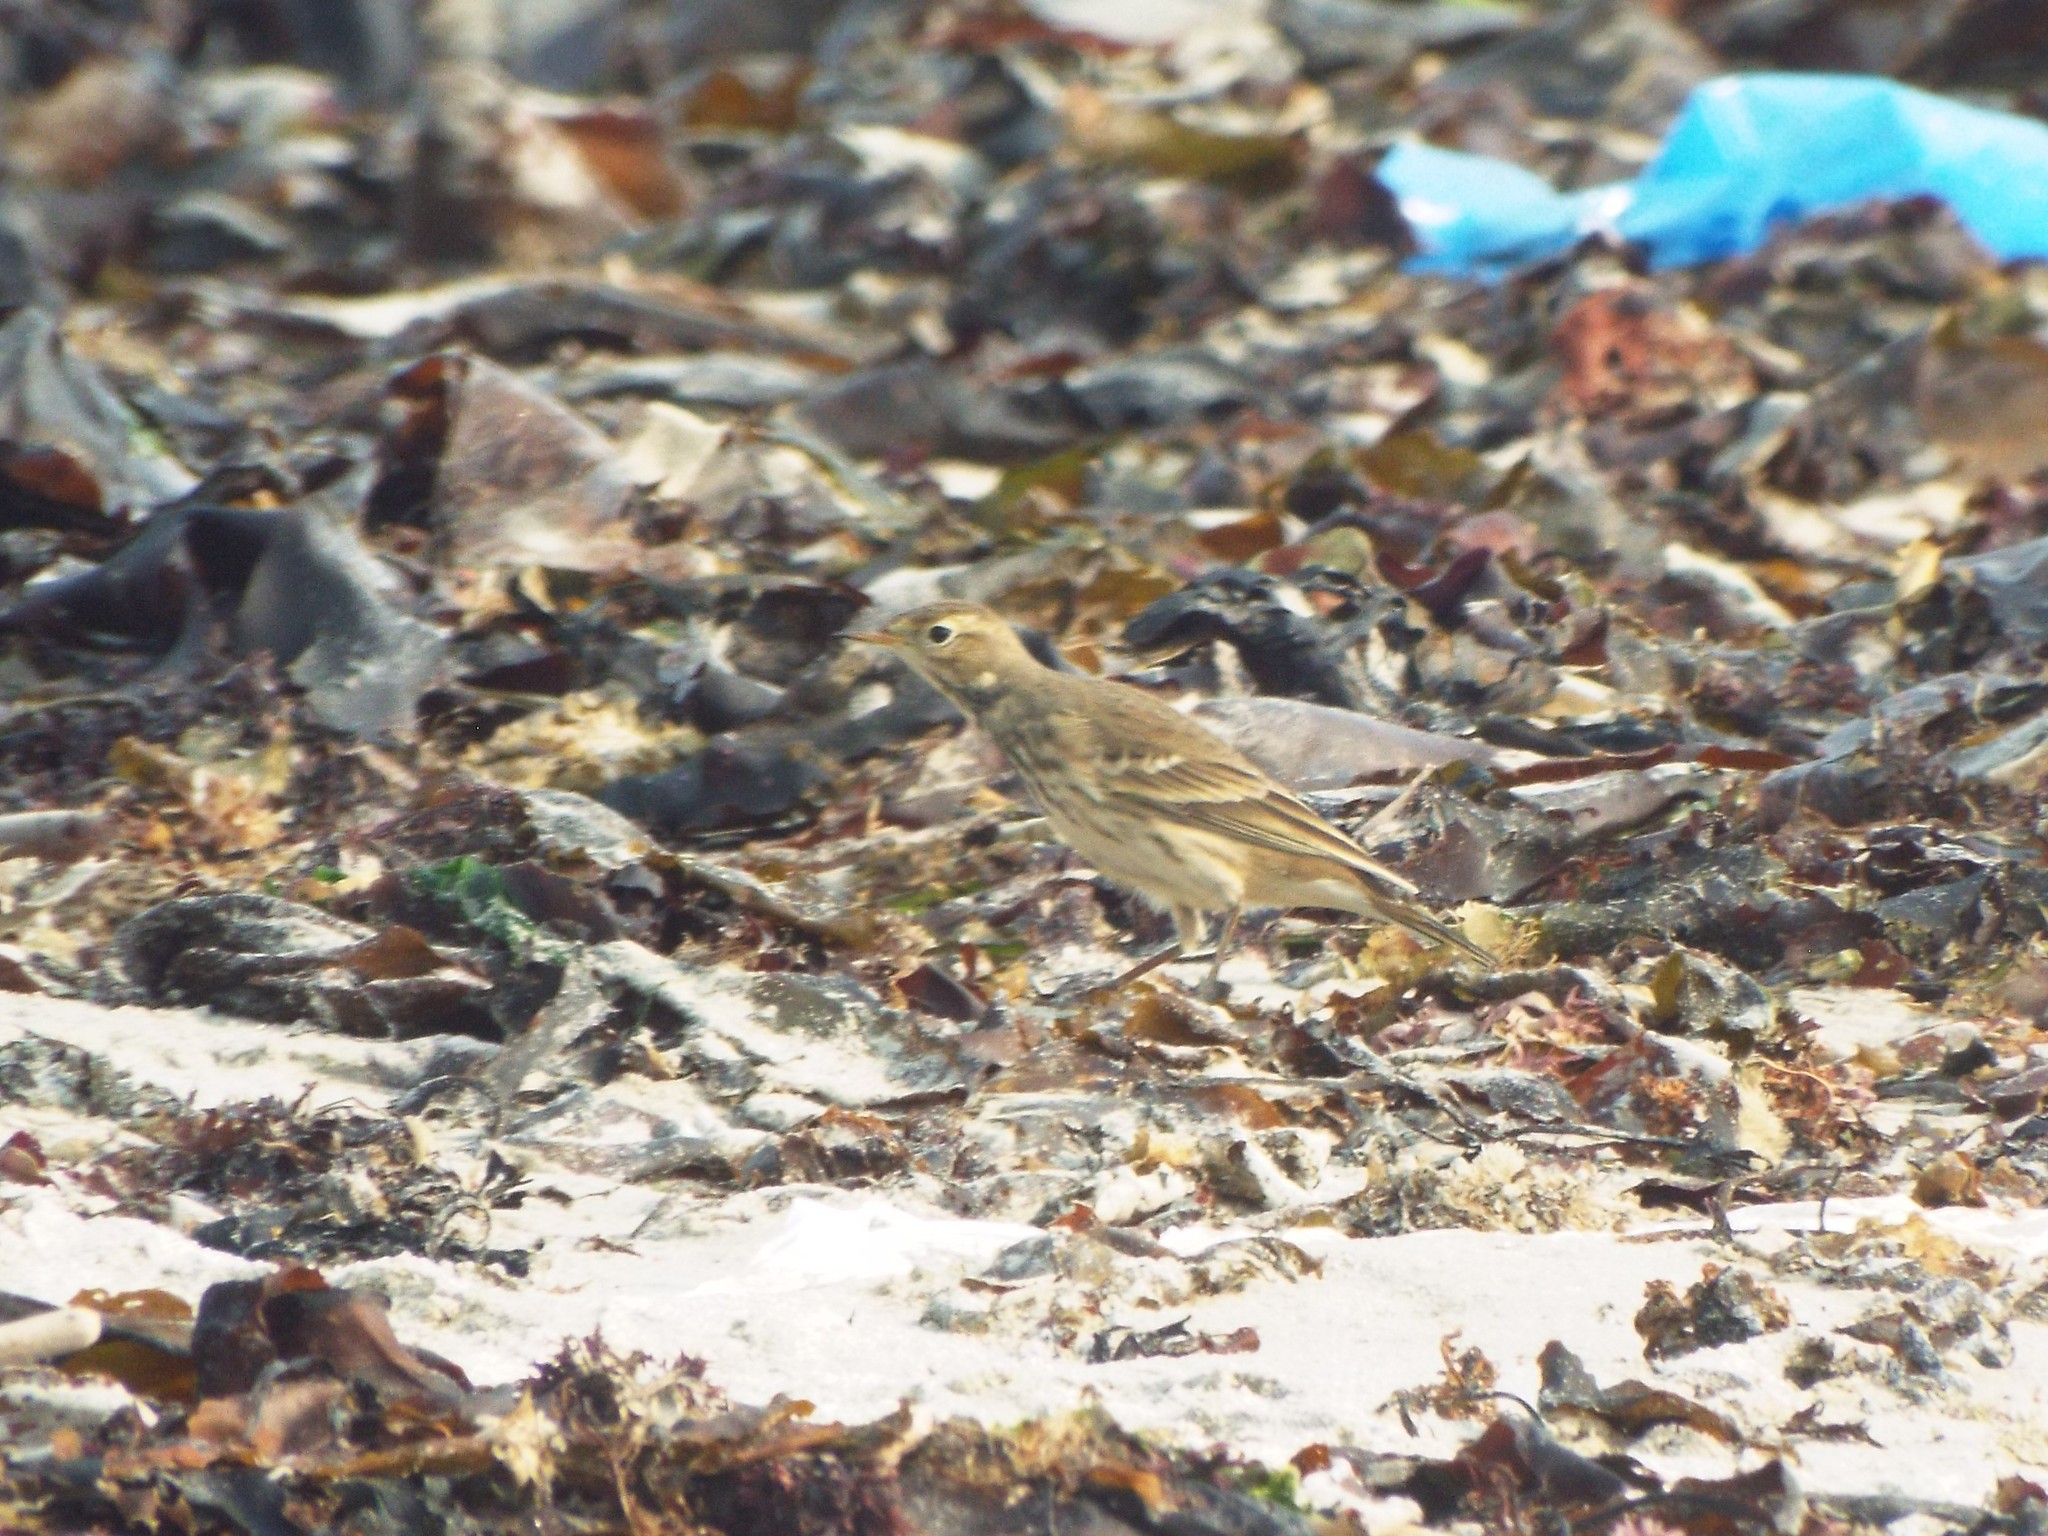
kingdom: Animalia
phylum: Chordata
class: Aves
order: Passeriformes
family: Motacillidae
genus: Anthus
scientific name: Anthus rubescens
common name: Buff-bellied pipit
